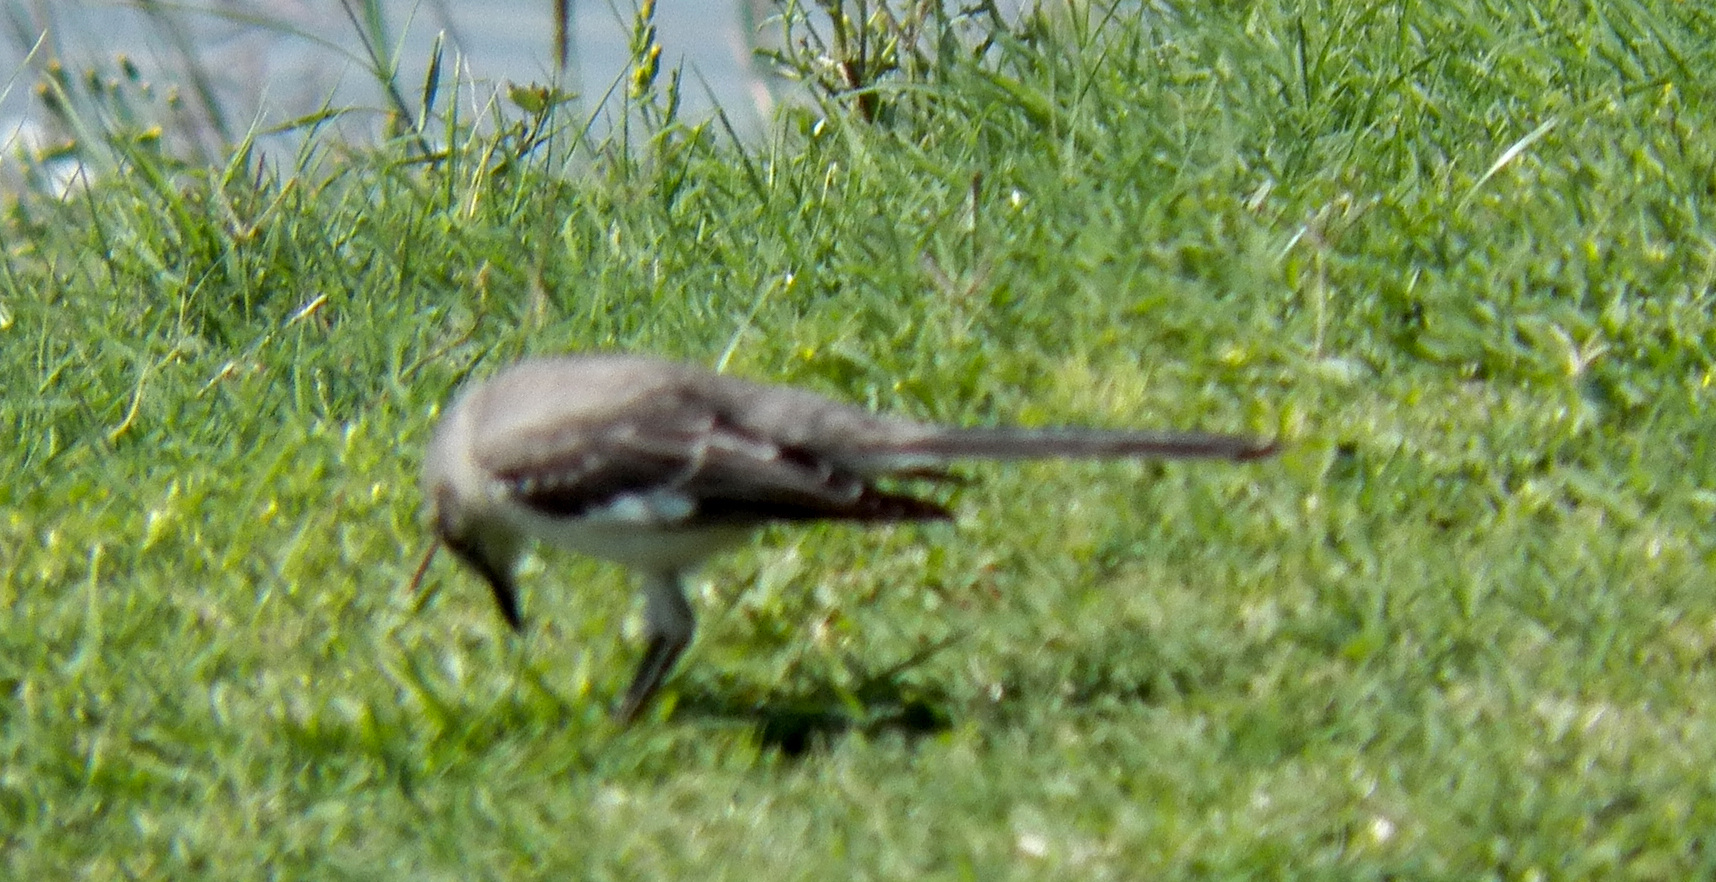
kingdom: Animalia
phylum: Chordata
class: Aves
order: Passeriformes
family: Mimidae
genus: Mimus
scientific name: Mimus polyglottos
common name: Northern mockingbird
